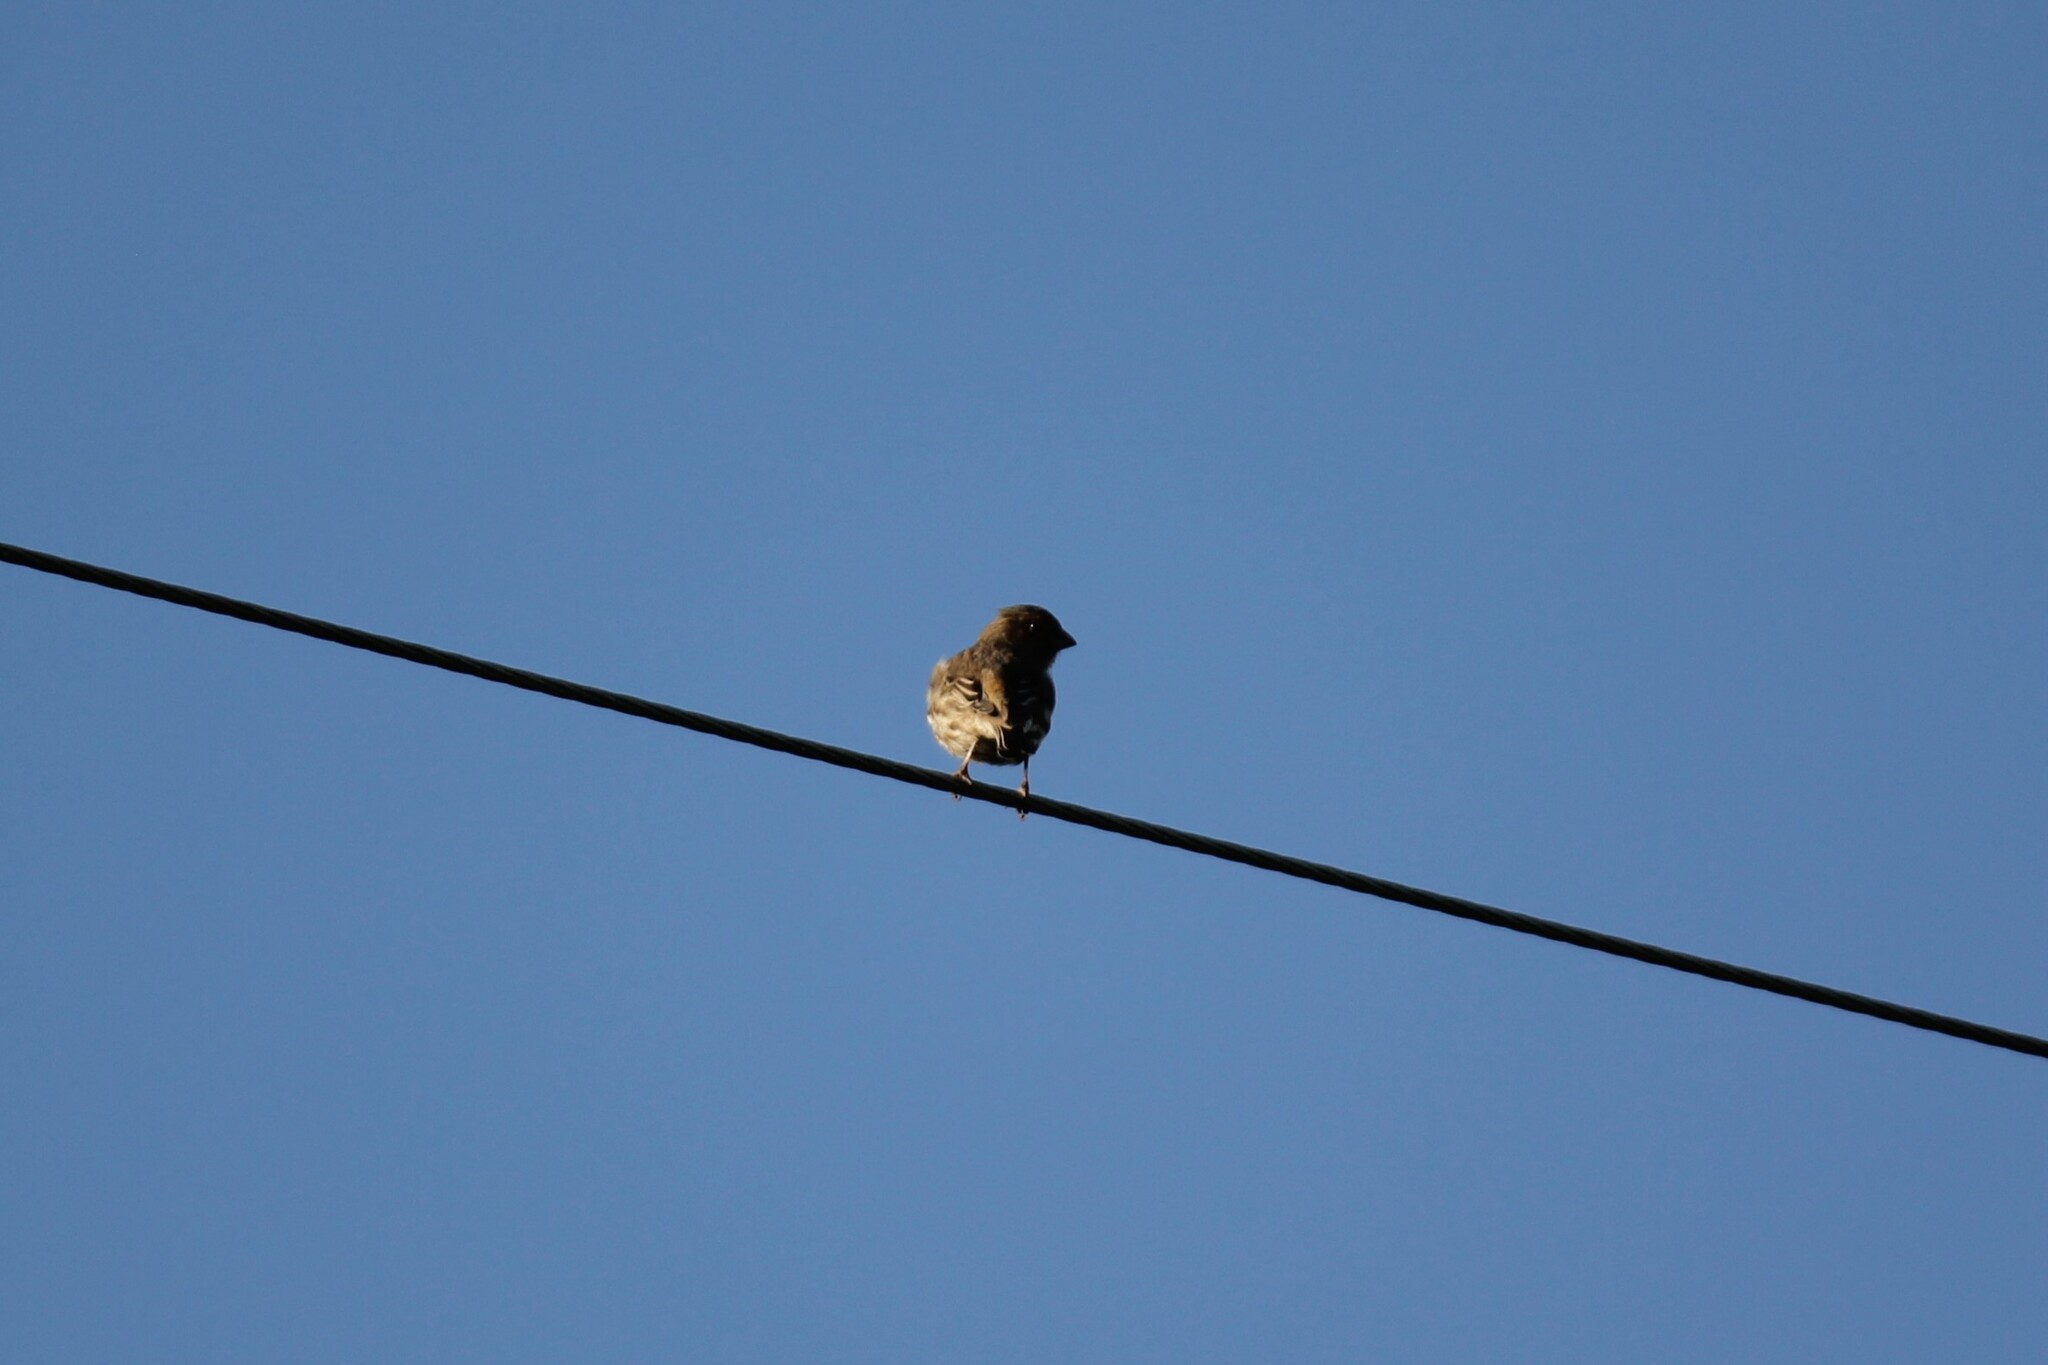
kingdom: Animalia
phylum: Chordata
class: Aves
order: Passeriformes
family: Fringillidae
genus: Haemorhous
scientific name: Haemorhous mexicanus
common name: House finch
